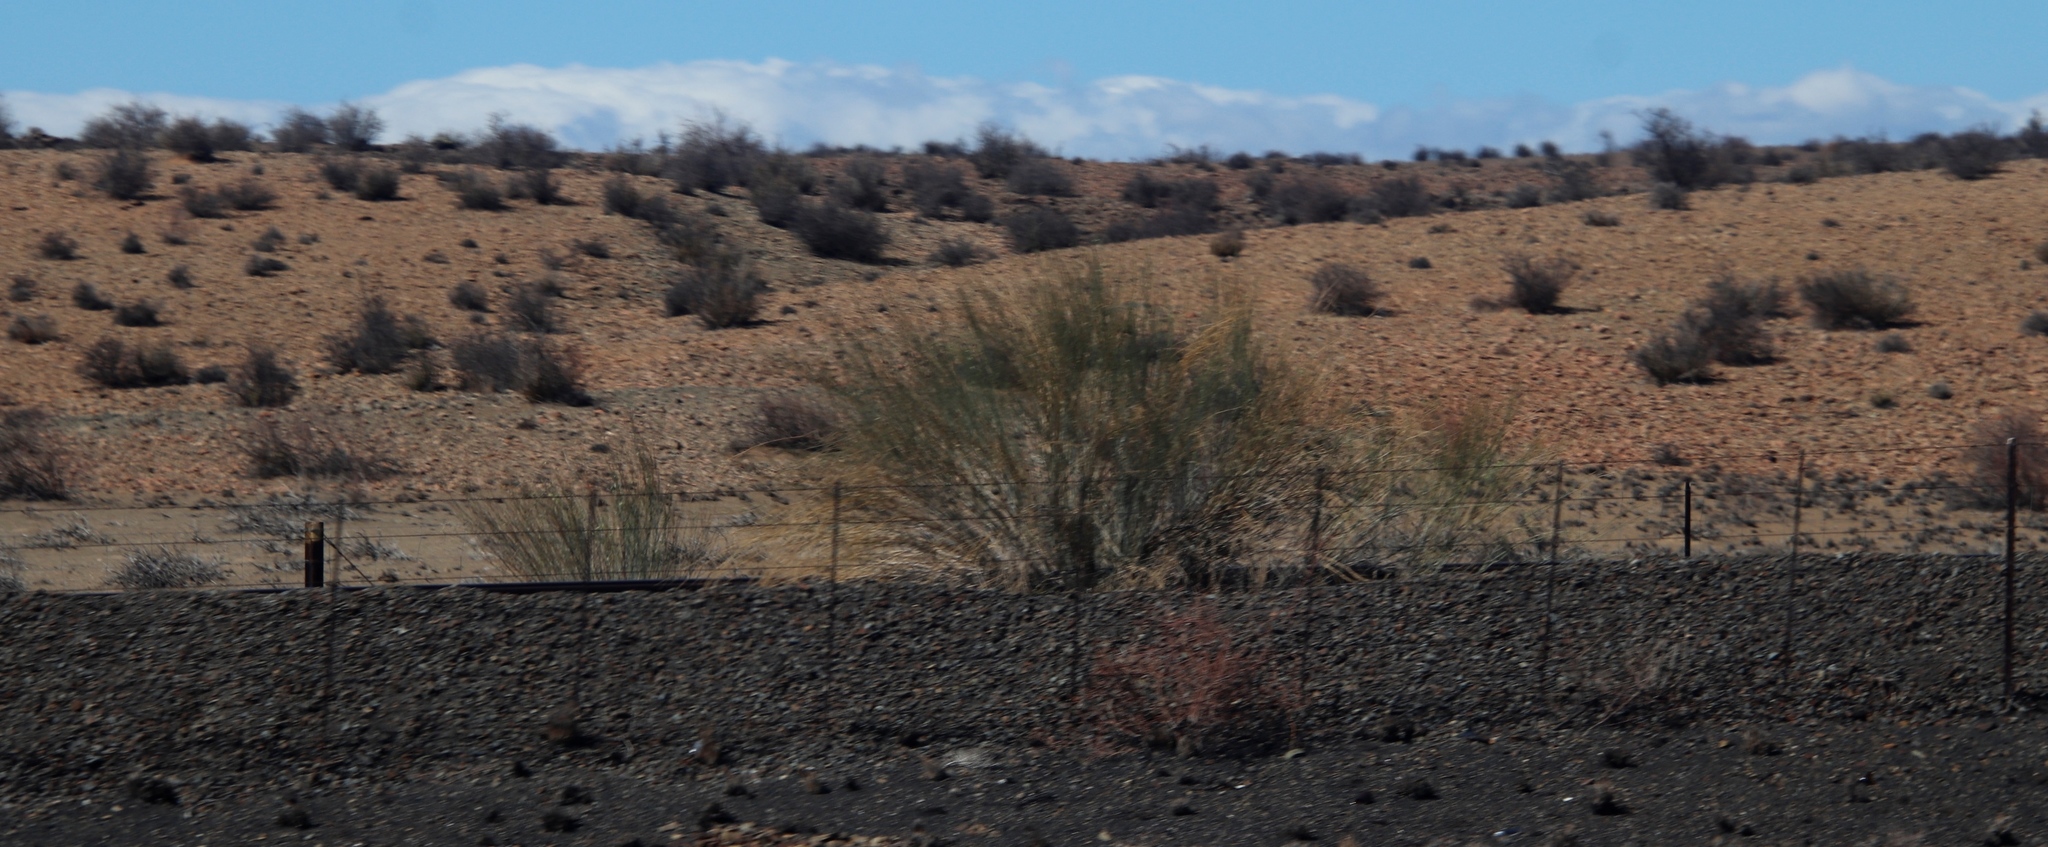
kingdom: Plantae
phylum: Tracheophyta
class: Magnoliopsida
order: Gentianales
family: Apocynaceae
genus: Gomphocarpus
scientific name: Gomphocarpus filiformis
